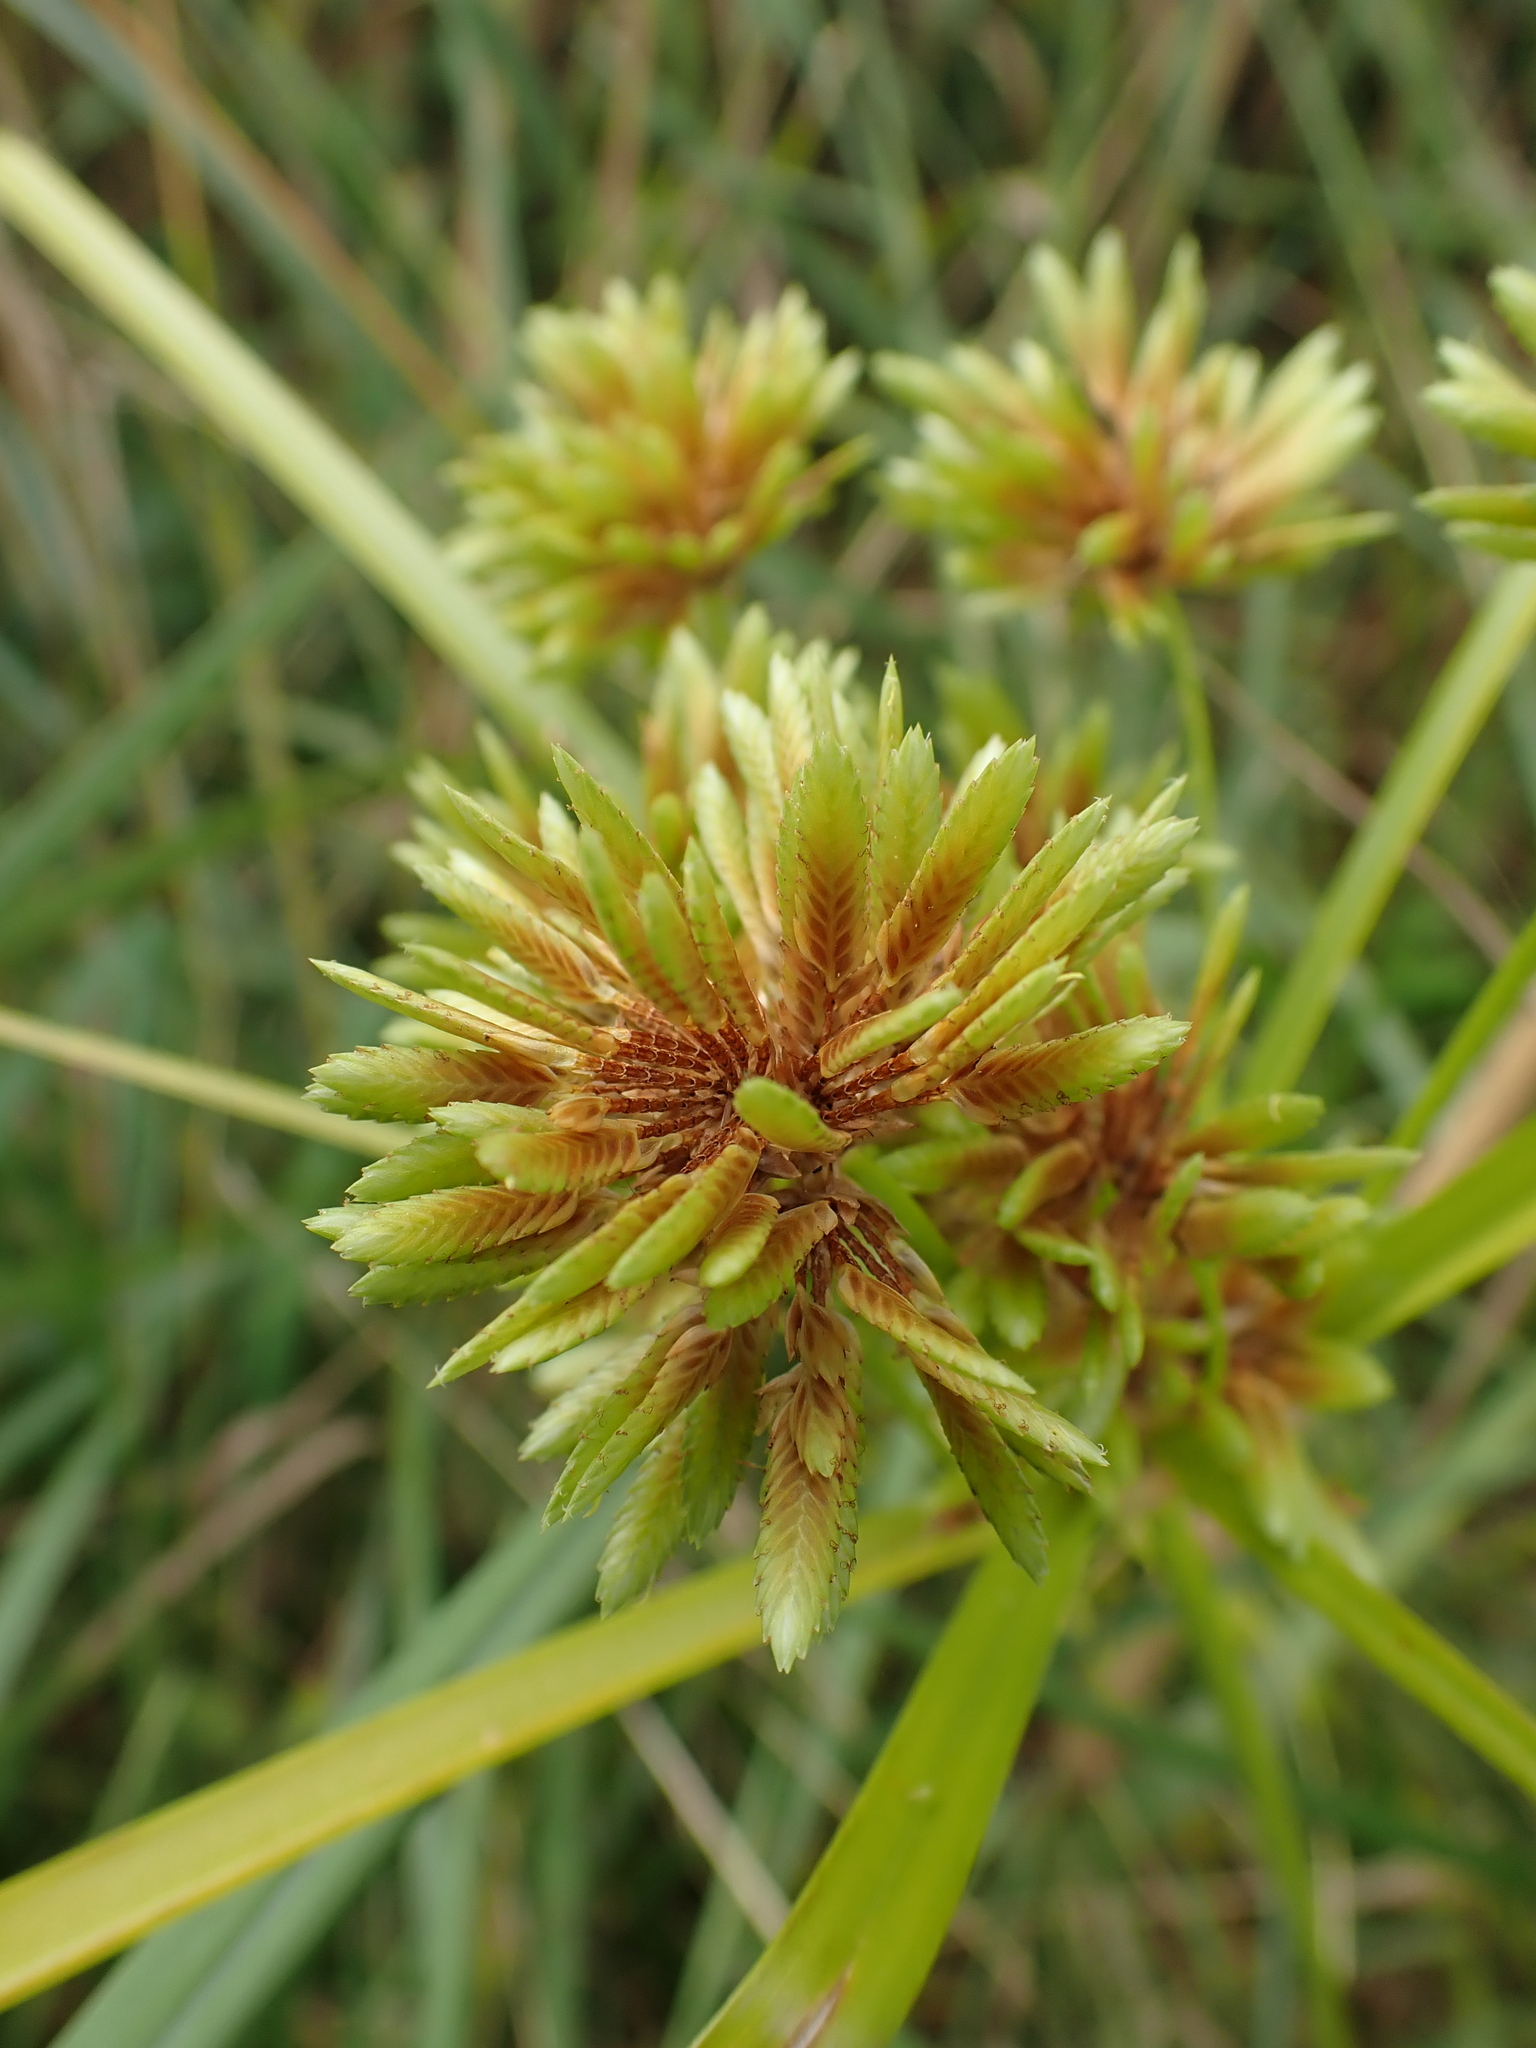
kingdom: Plantae
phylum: Tracheophyta
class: Liliopsida
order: Poales
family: Cyperaceae
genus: Cyperus
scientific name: Cyperus eragrostis
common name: Tall flatsedge
